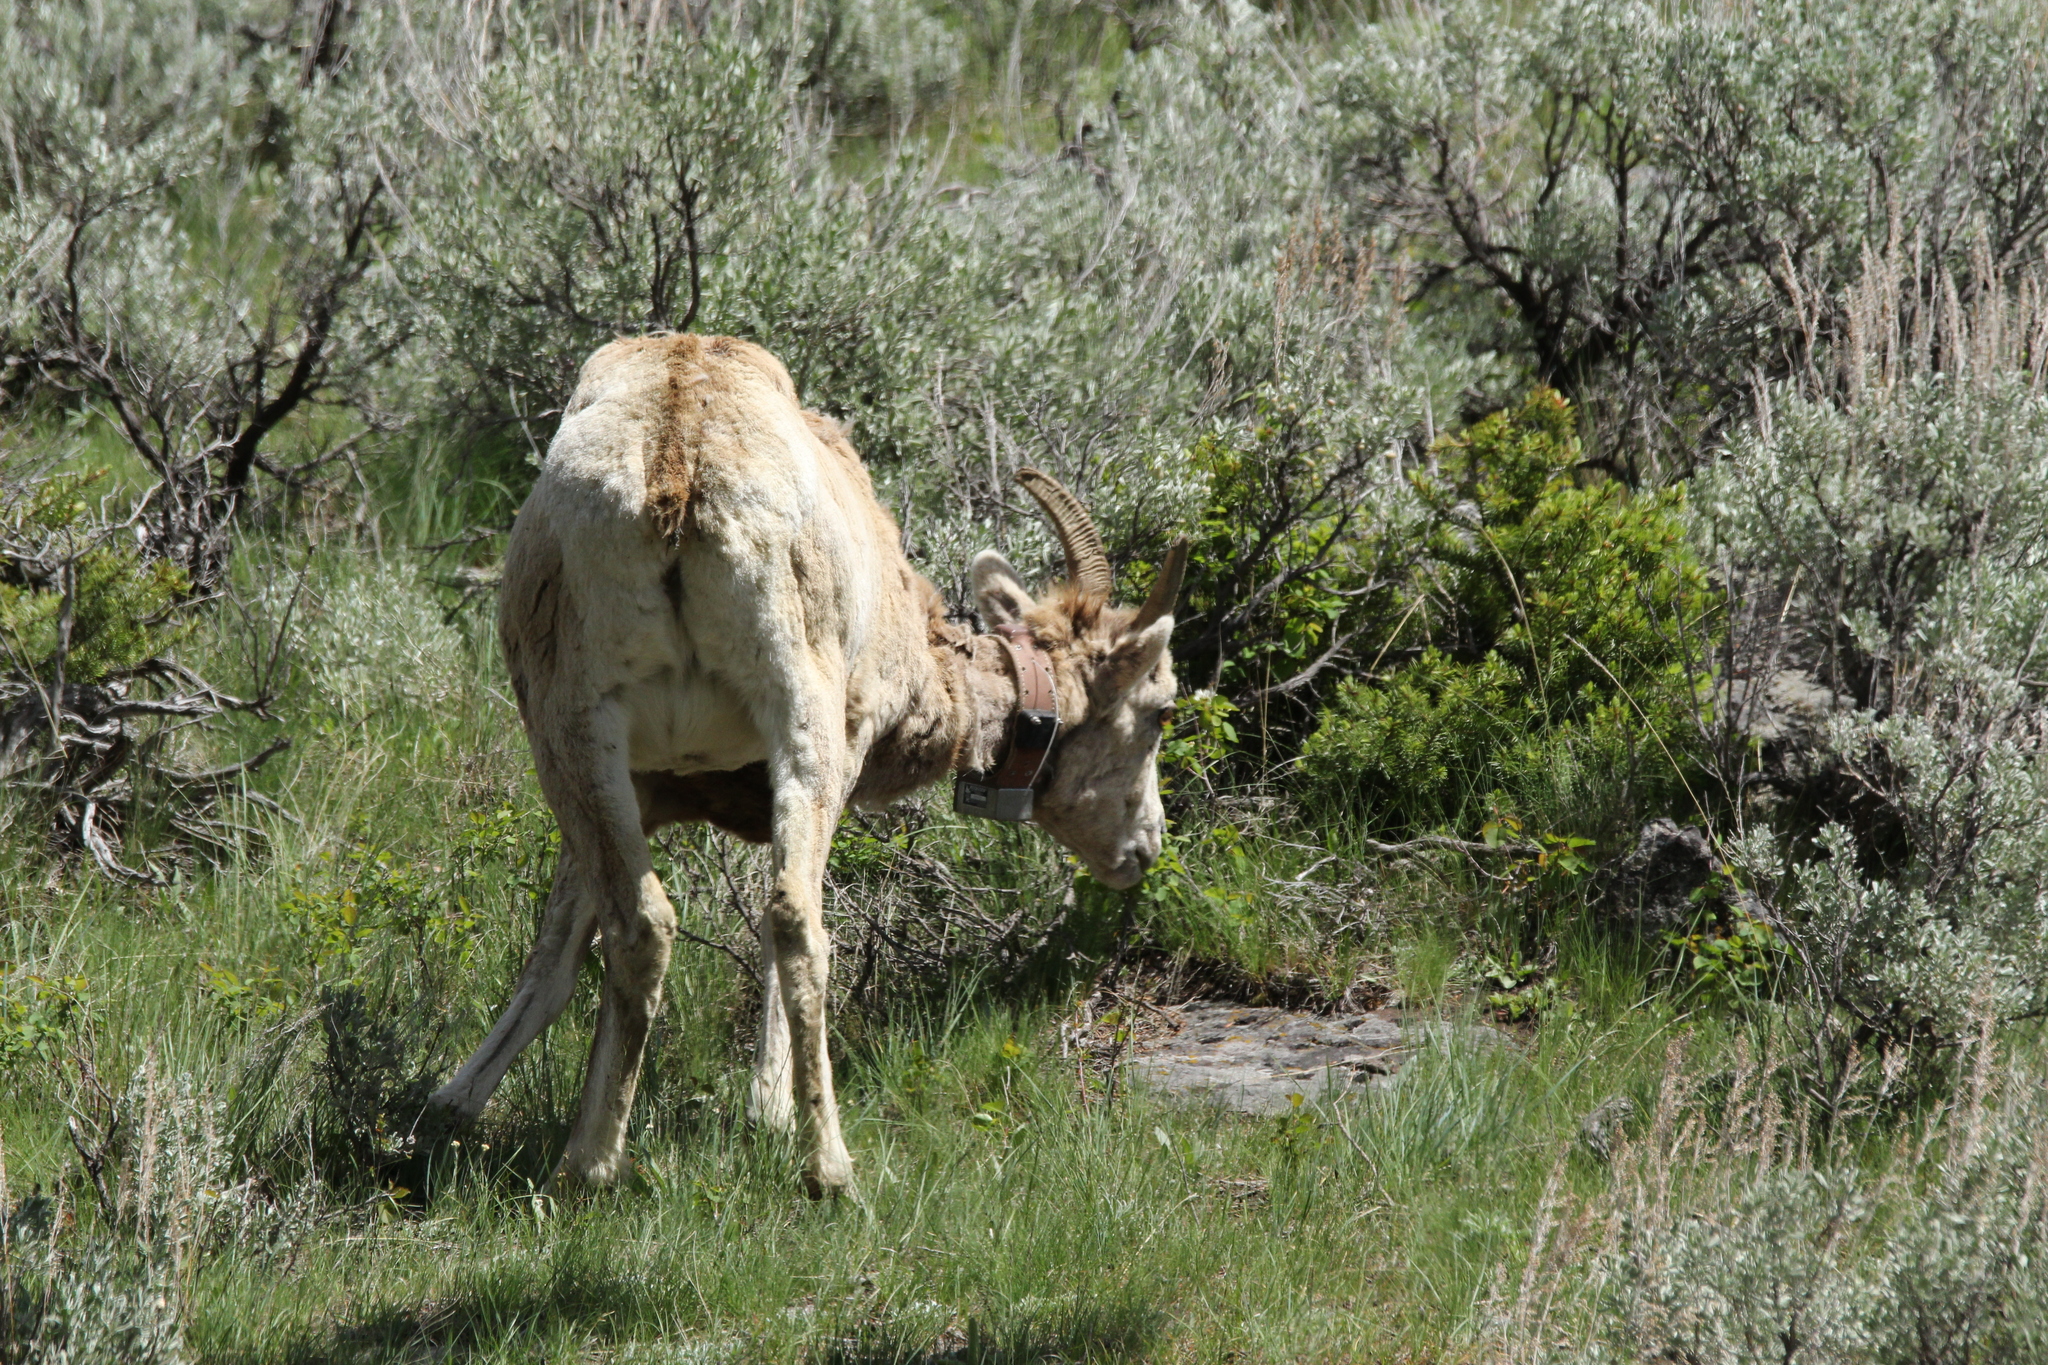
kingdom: Animalia
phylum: Chordata
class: Mammalia
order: Artiodactyla
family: Bovidae
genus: Ovis
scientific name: Ovis canadensis
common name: Bighorn sheep
